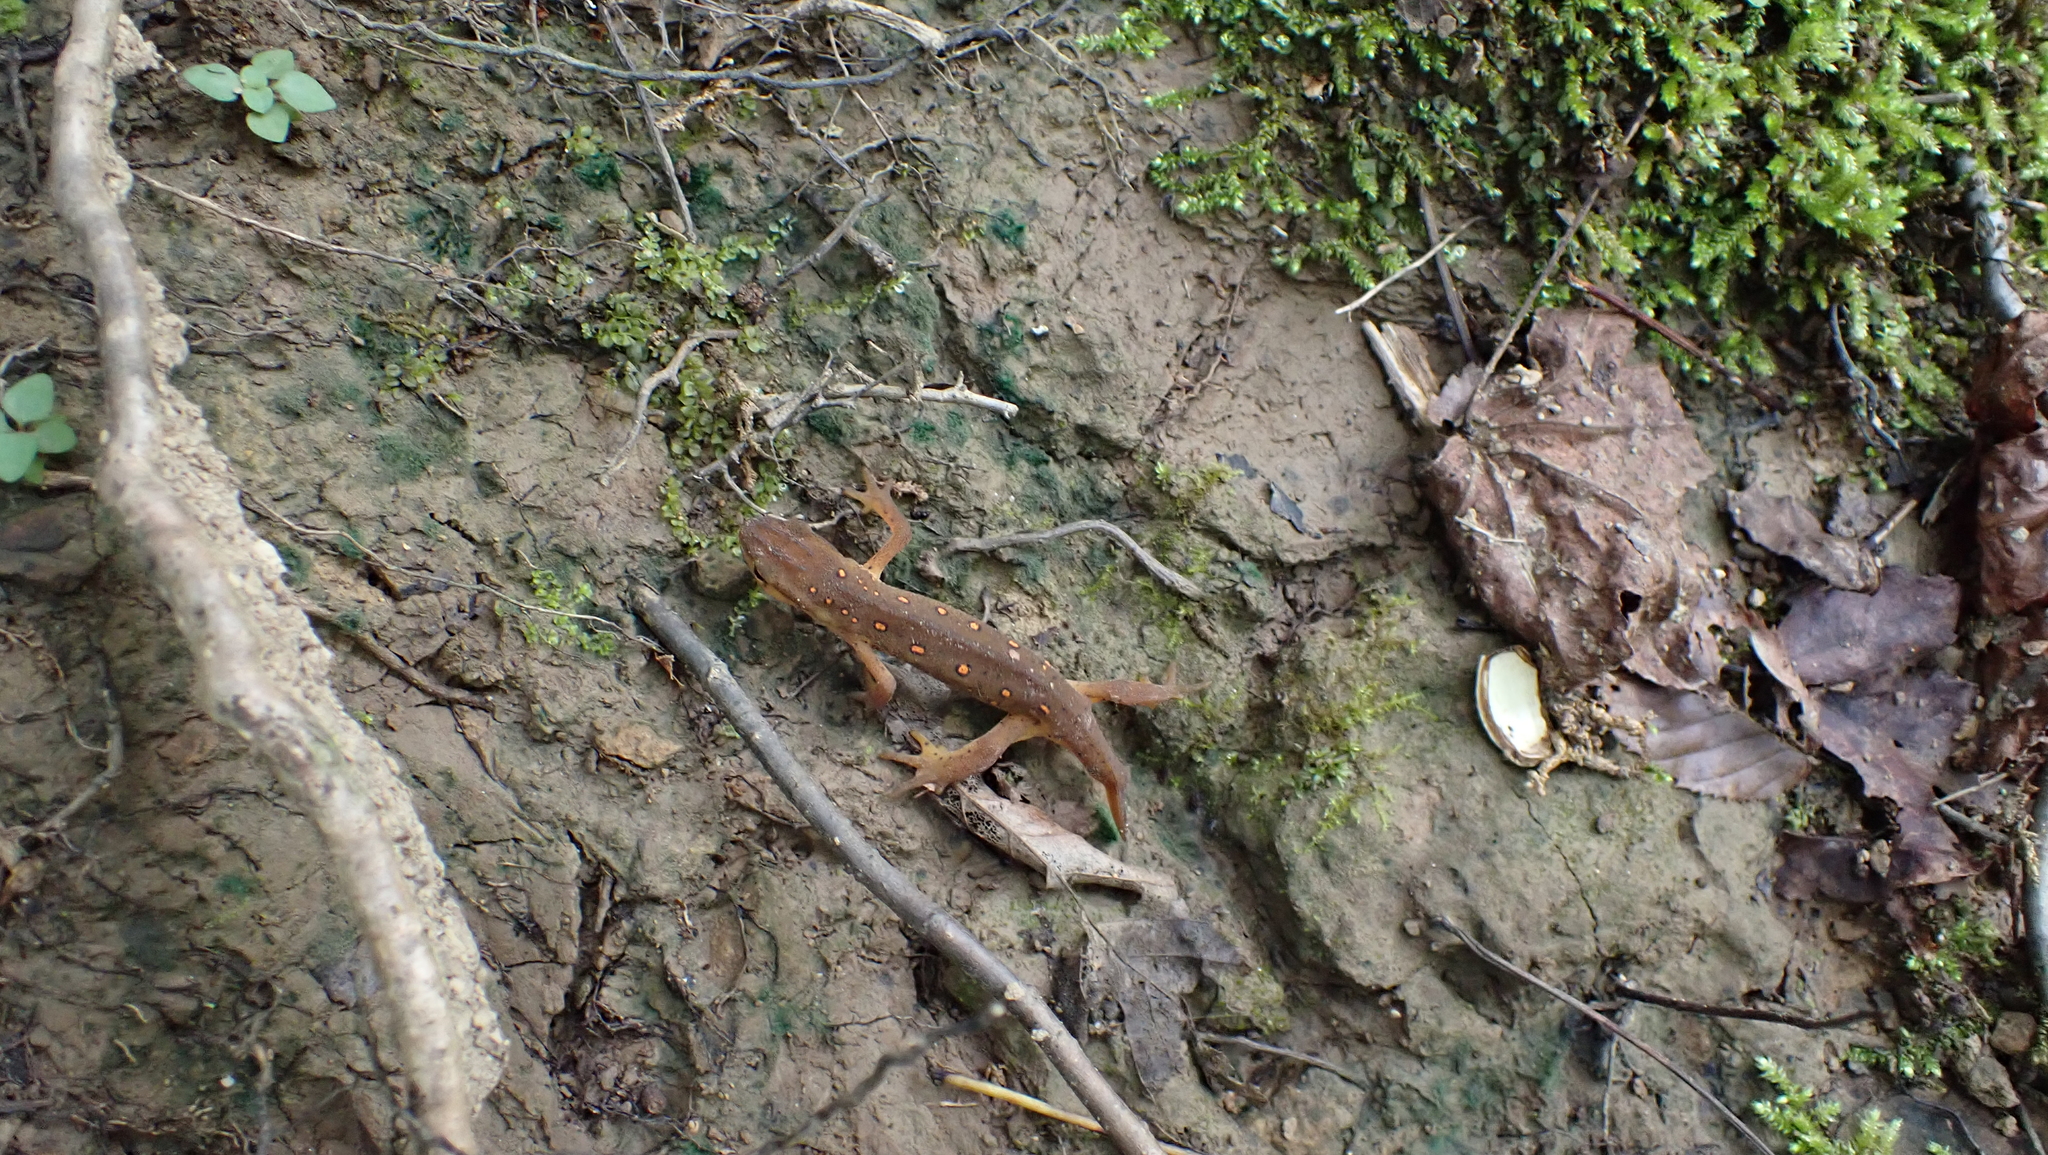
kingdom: Animalia
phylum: Chordata
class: Amphibia
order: Caudata
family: Salamandridae
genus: Notophthalmus
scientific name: Notophthalmus viridescens
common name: Eastern newt
